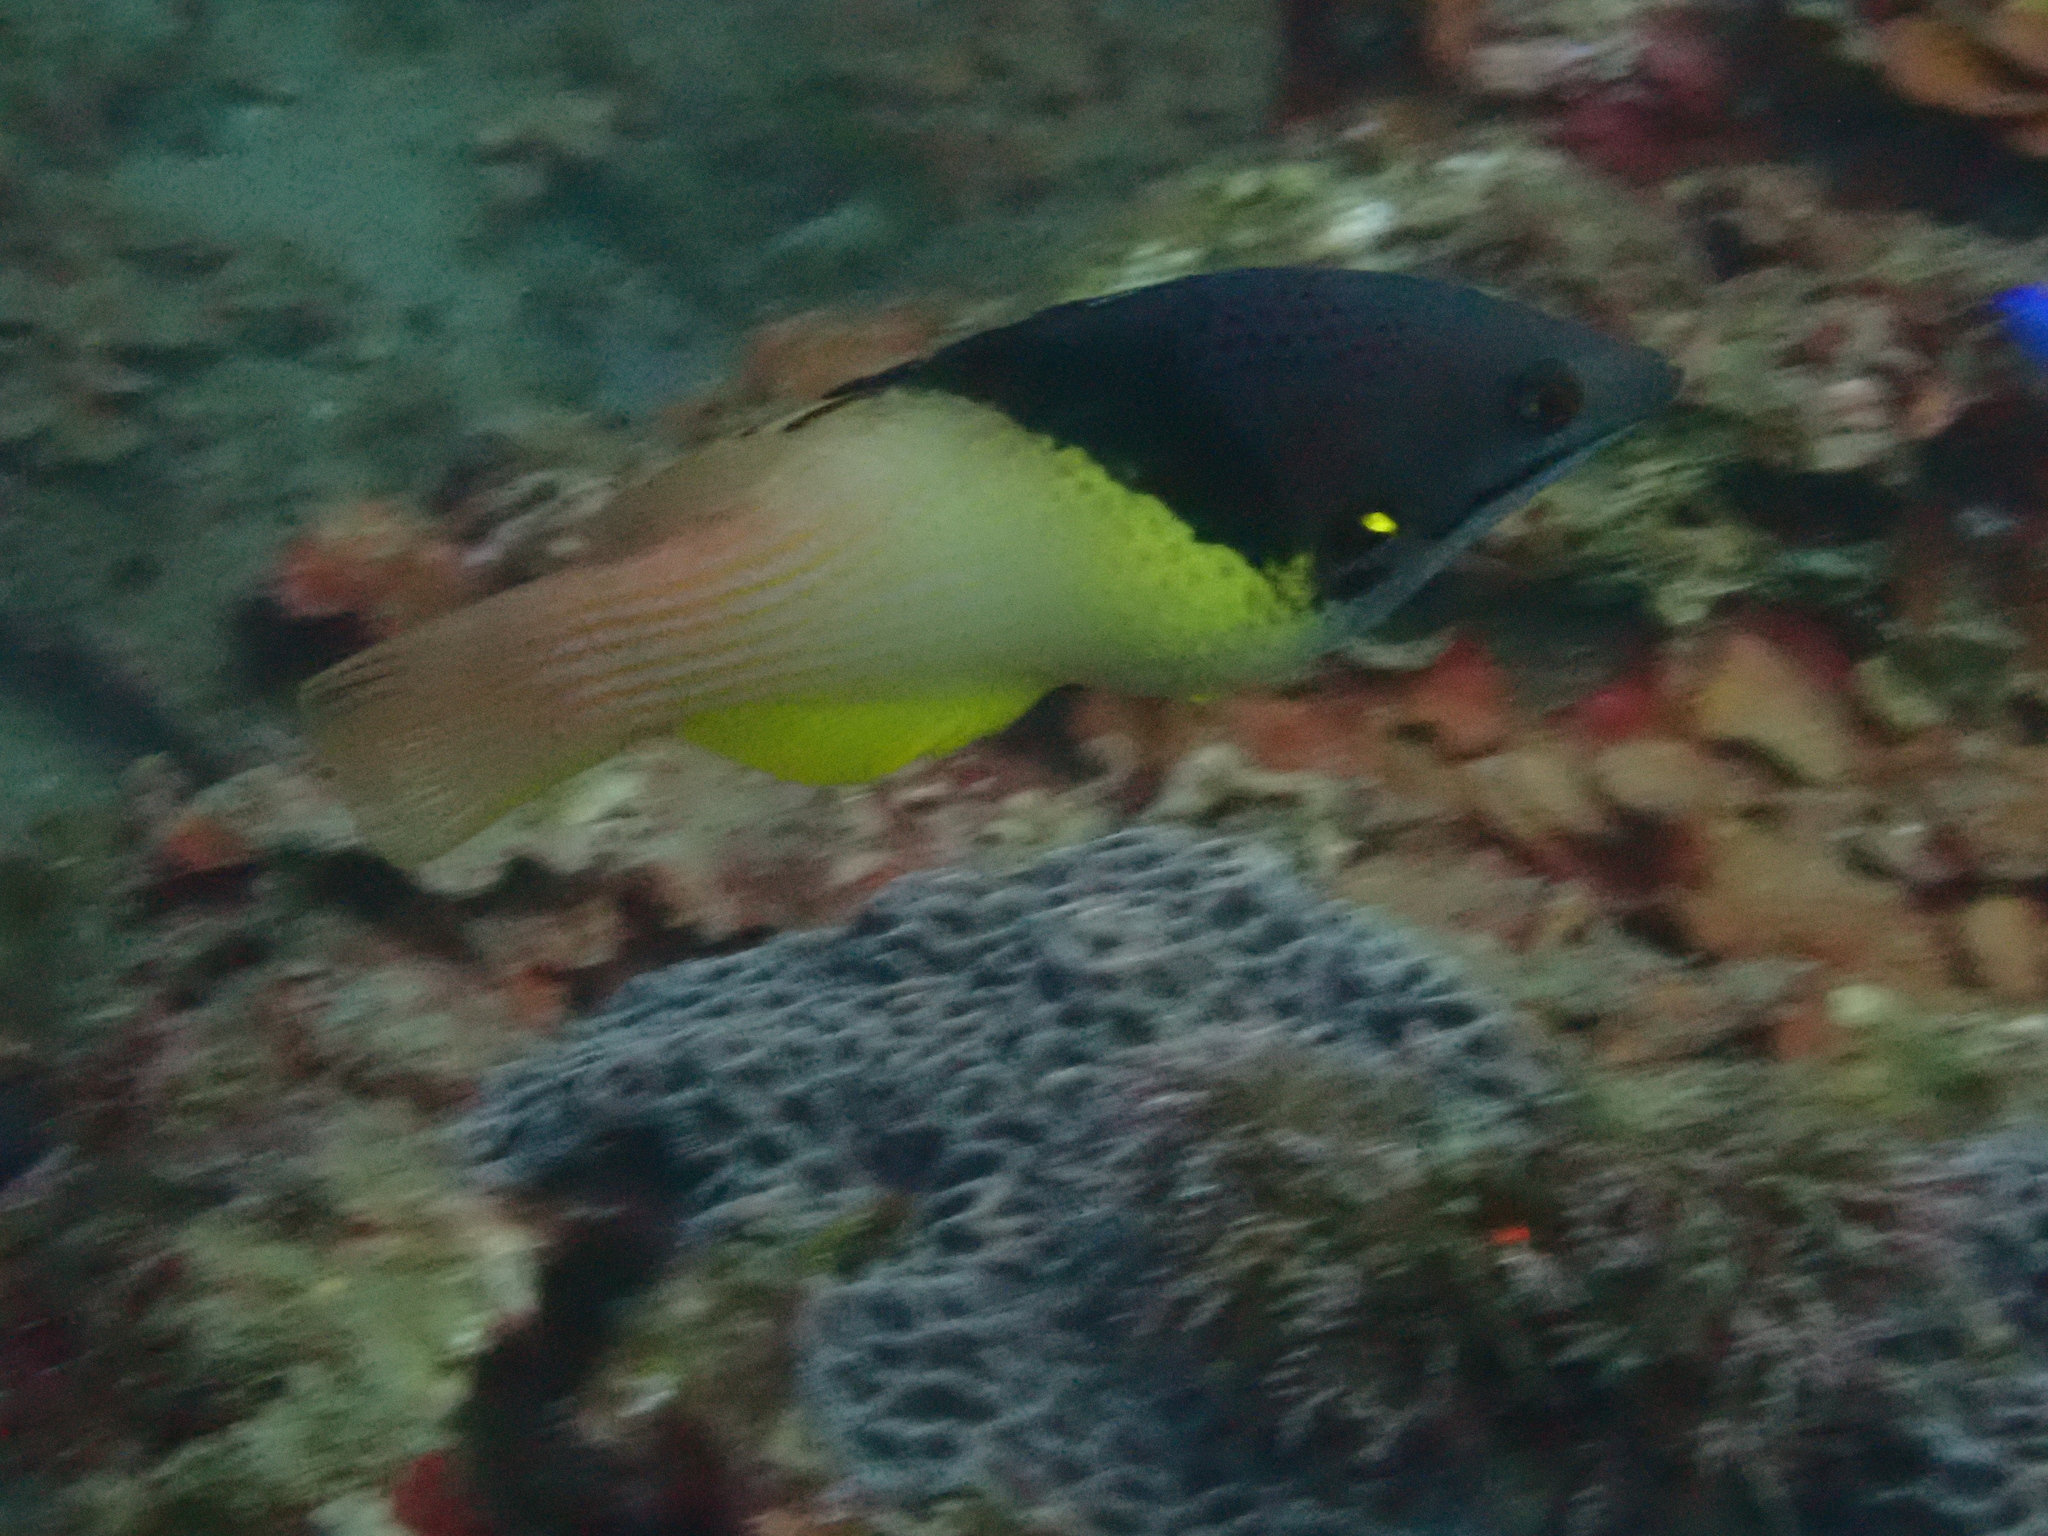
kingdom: Animalia
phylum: Chordata
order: Perciformes
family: Labridae
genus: Bodianus
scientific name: Bodianus mesothorax
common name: Coral hogfish
